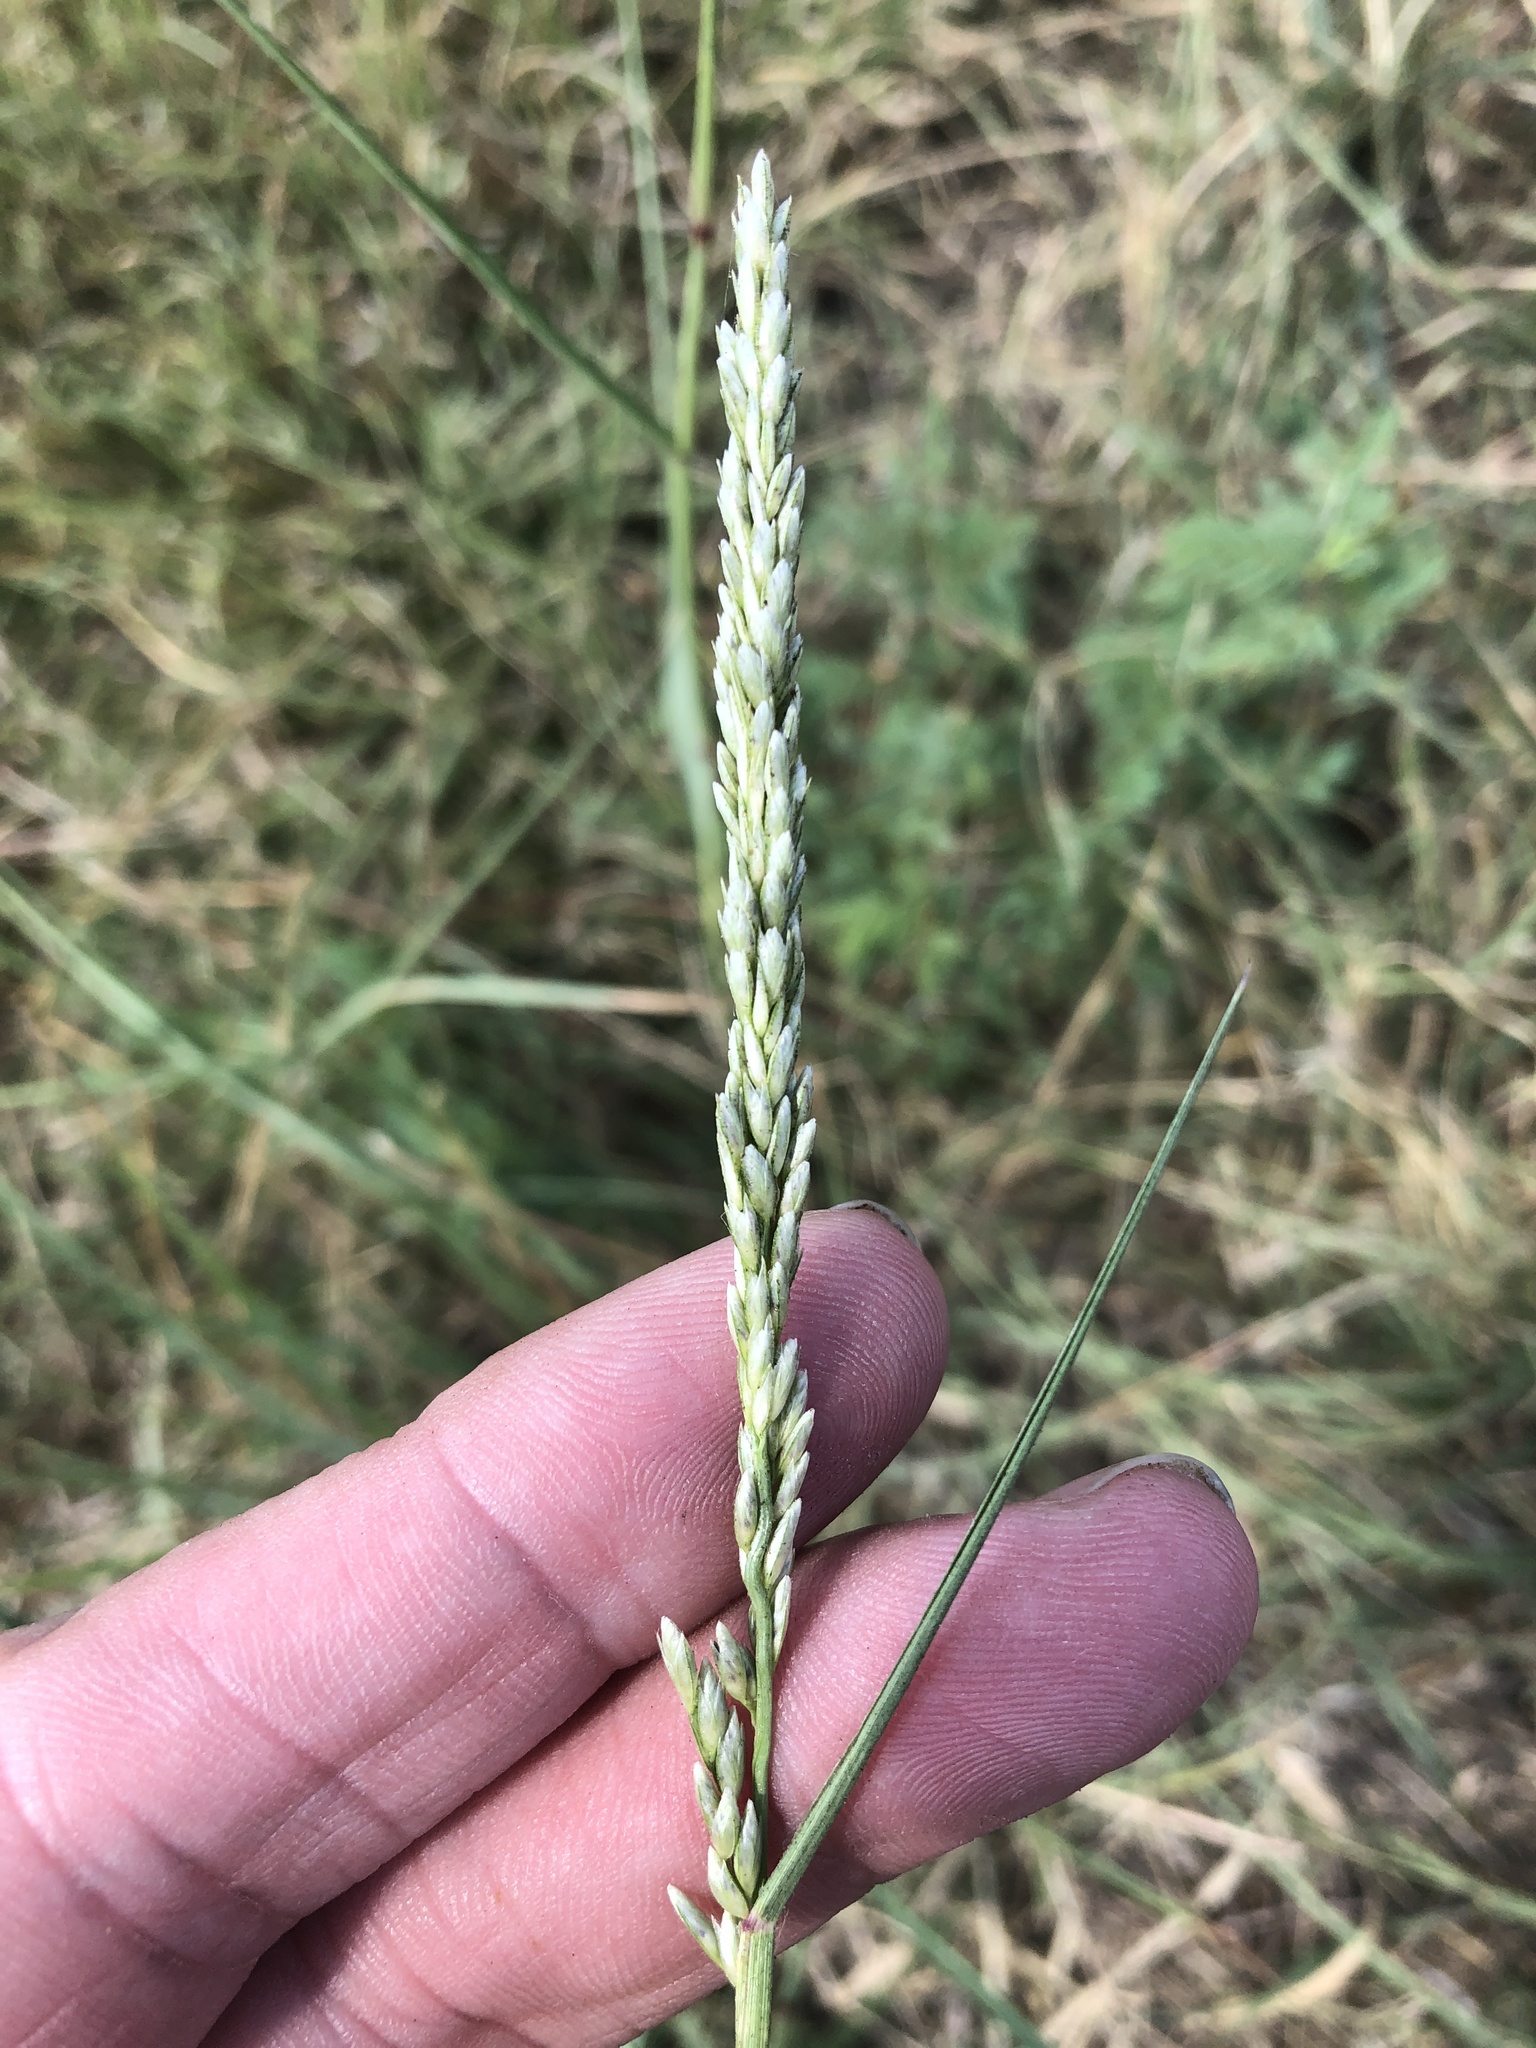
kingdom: Plantae
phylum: Tracheophyta
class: Liliopsida
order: Poales
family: Poaceae
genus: Tridens
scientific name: Tridens albescens
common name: White tridens
